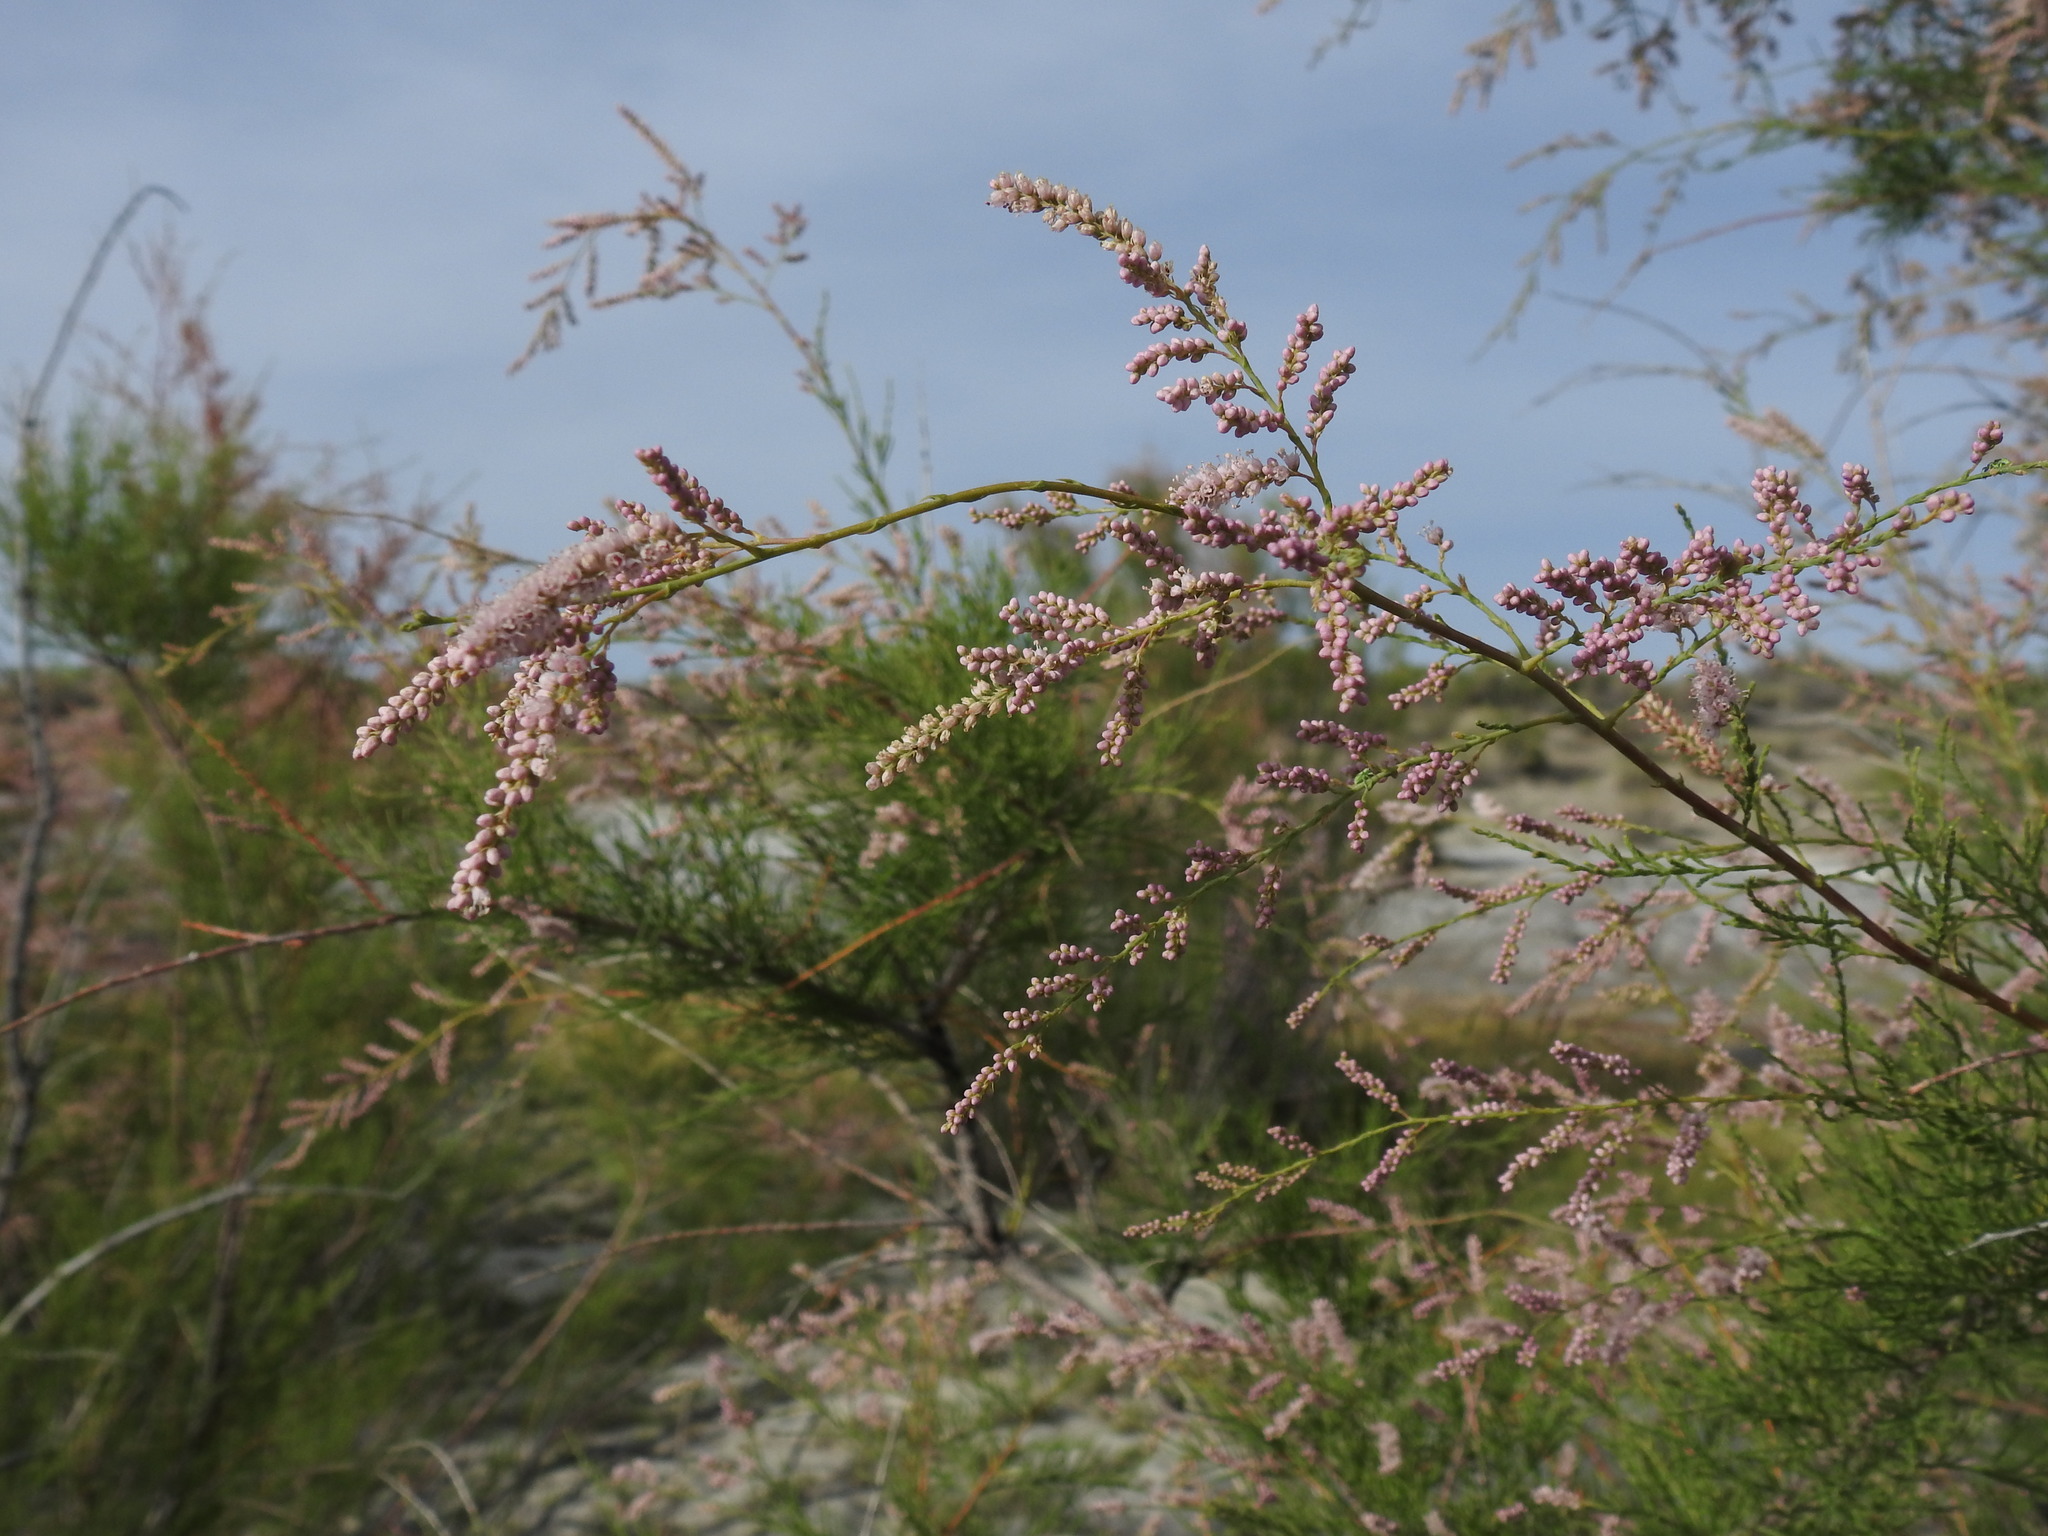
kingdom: Plantae
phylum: Tracheophyta
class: Magnoliopsida
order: Caryophyllales
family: Tamaricaceae
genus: Tamarix
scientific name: Tamarix ramosissima
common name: Pink tamarisk
